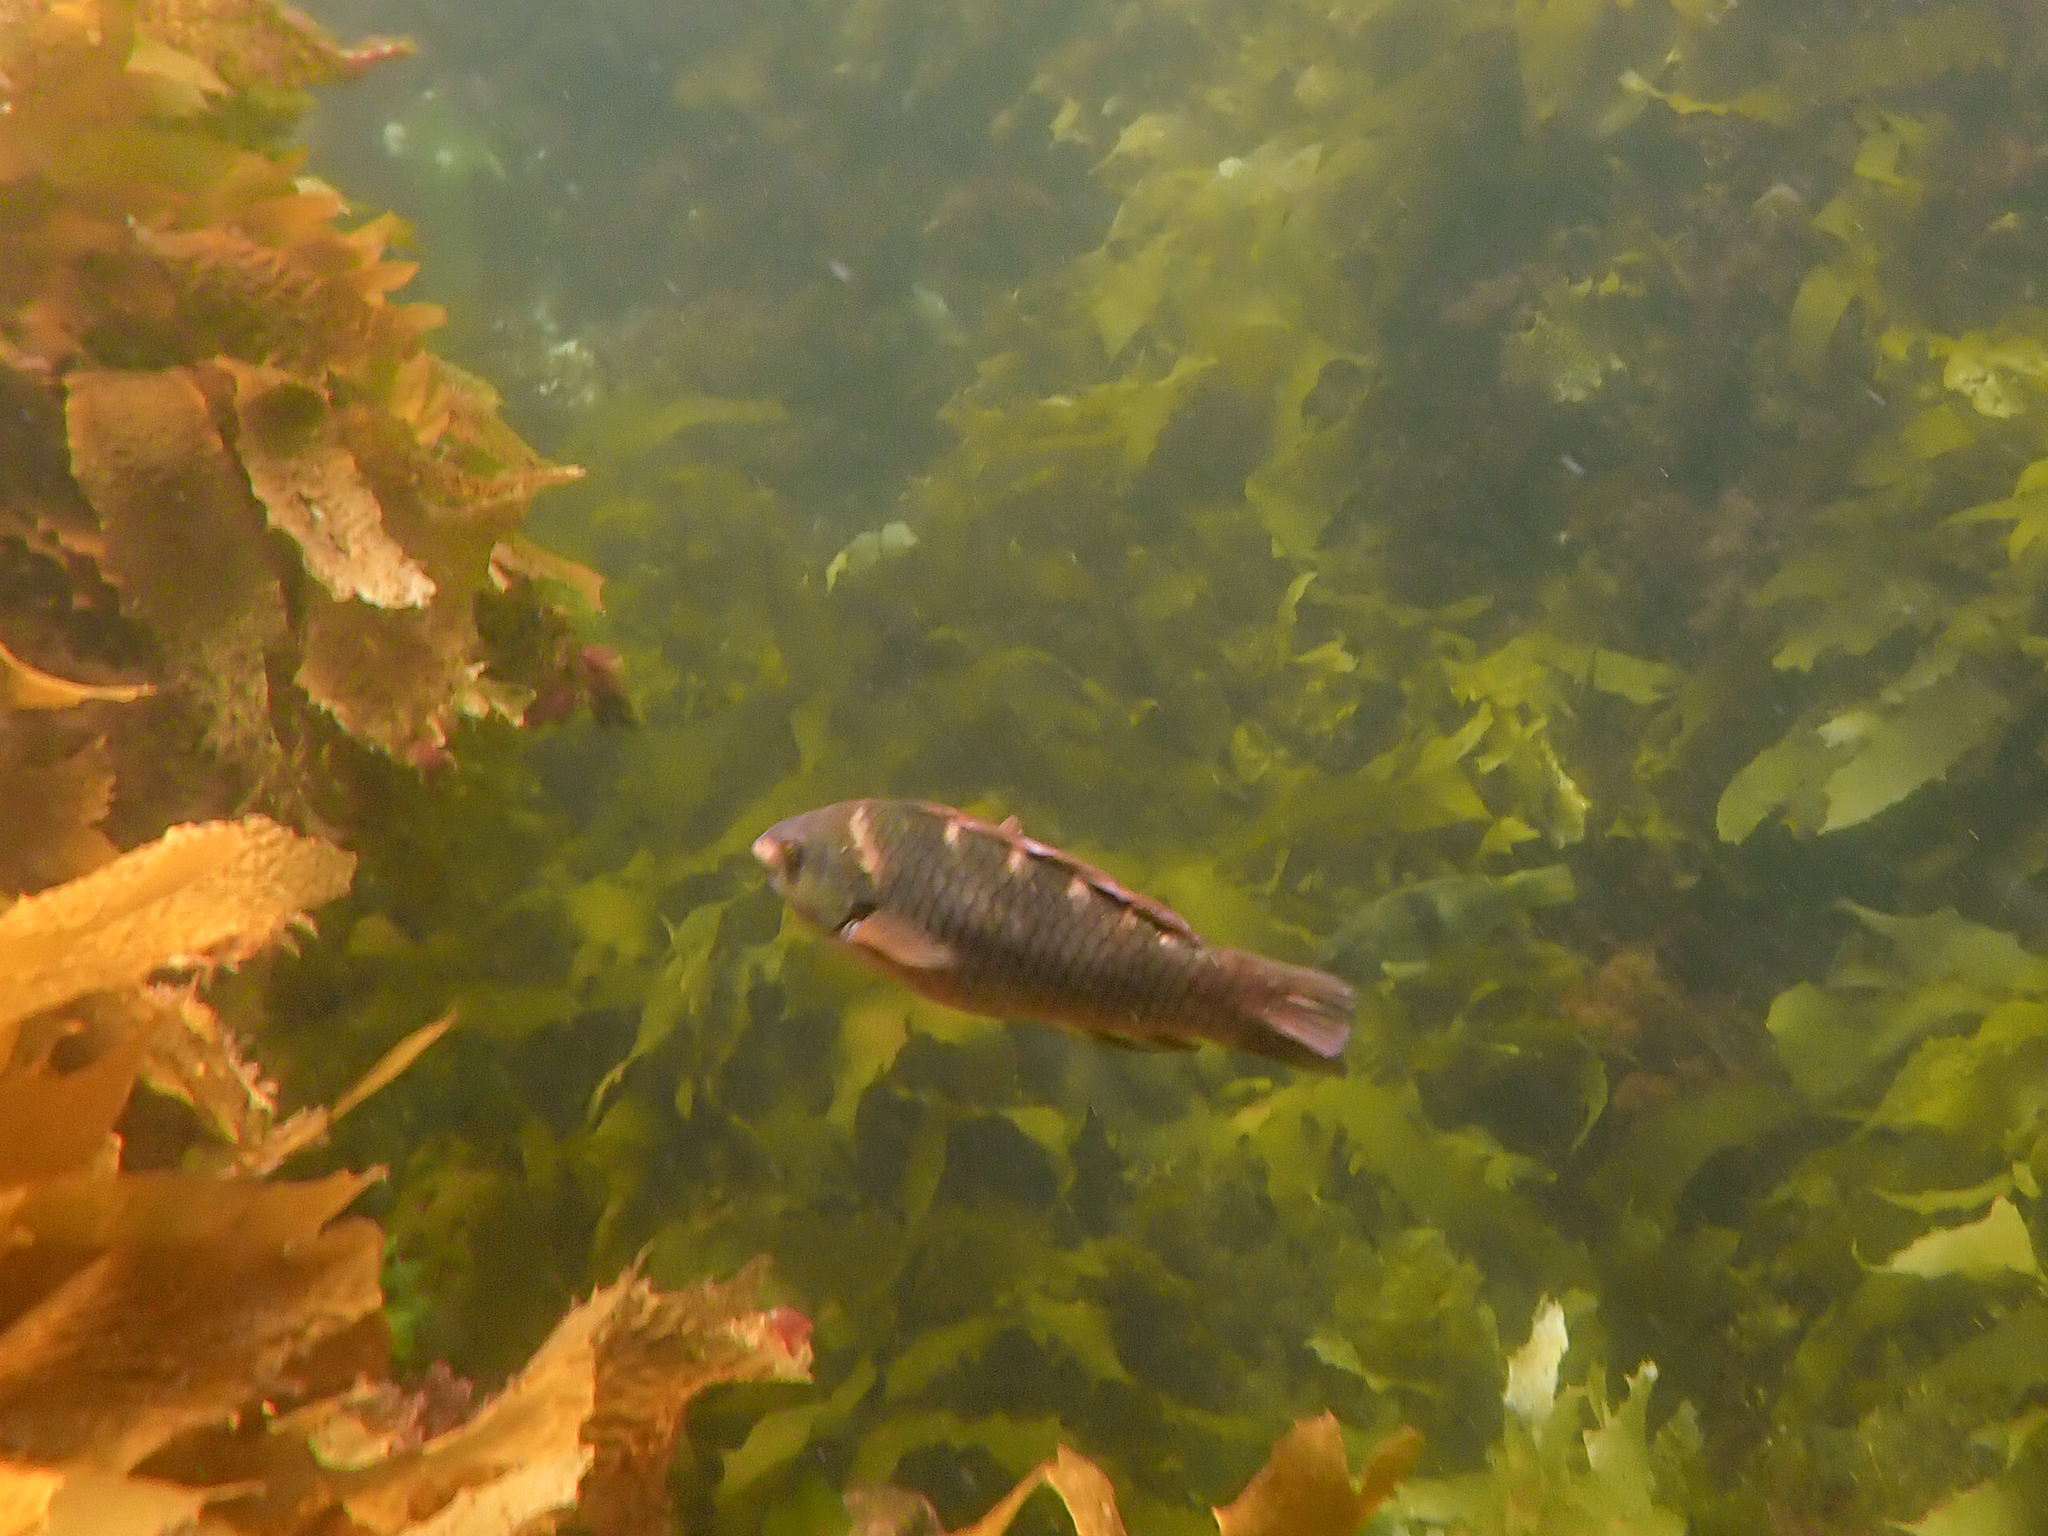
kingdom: Animalia
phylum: Chordata
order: Perciformes
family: Labridae
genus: Notolabrus
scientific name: Notolabrus fucicola
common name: Banded parrotfish
